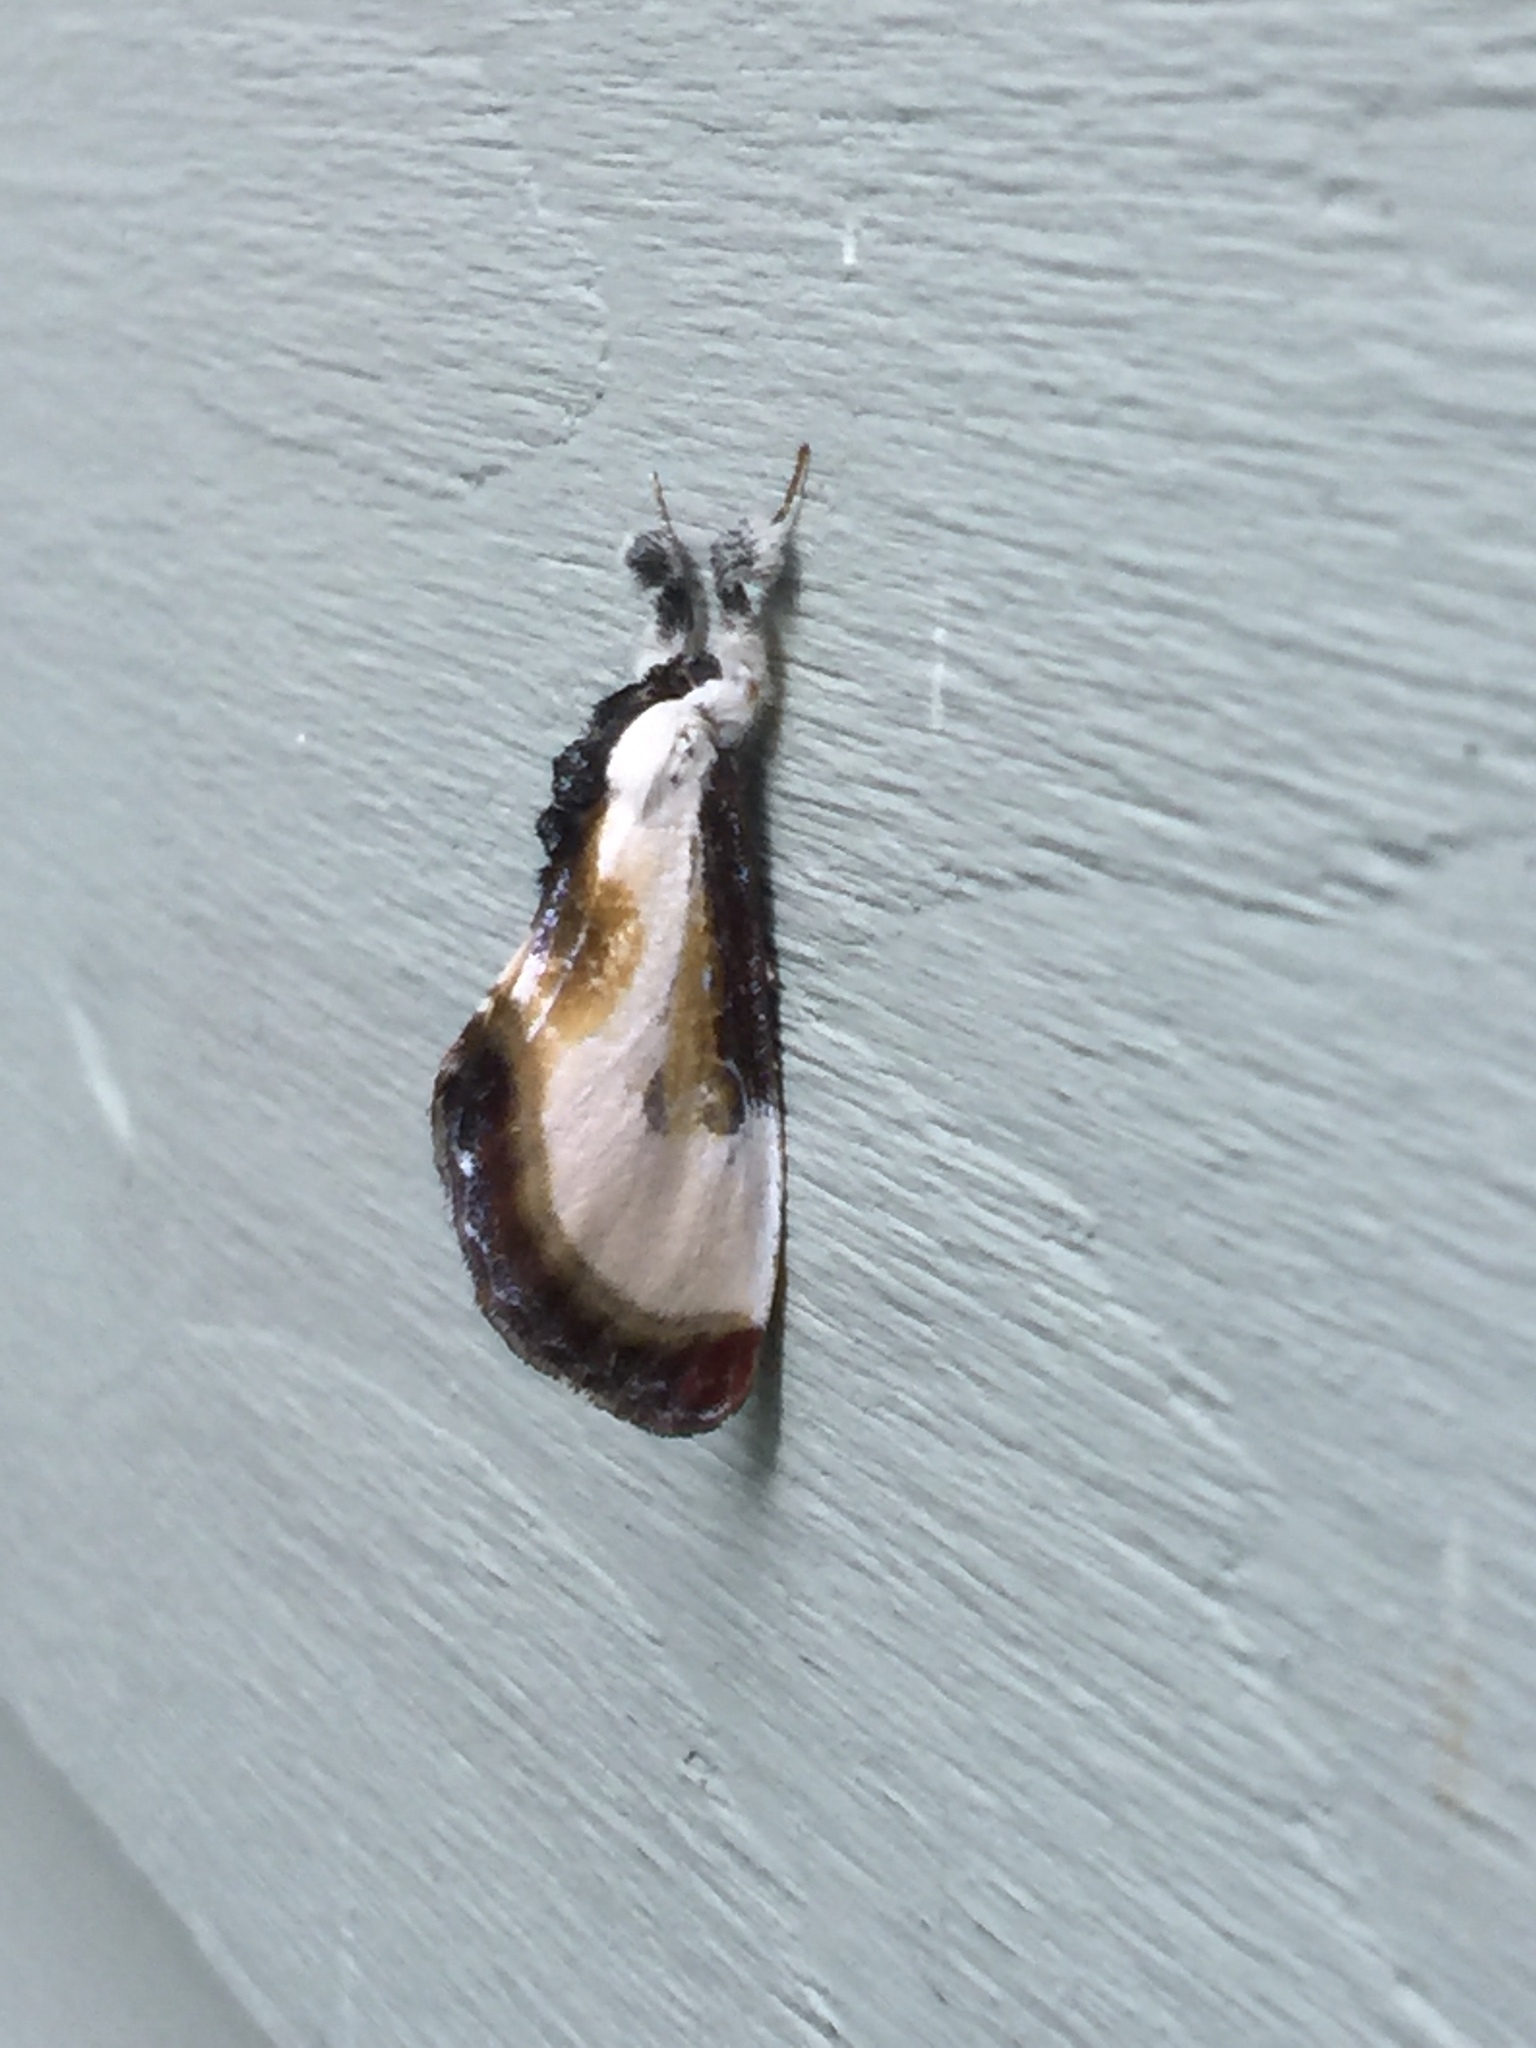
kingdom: Animalia
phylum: Arthropoda
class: Insecta
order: Lepidoptera
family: Noctuidae
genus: Eudryas
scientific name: Eudryas grata
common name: Beautiful wood-nymph
